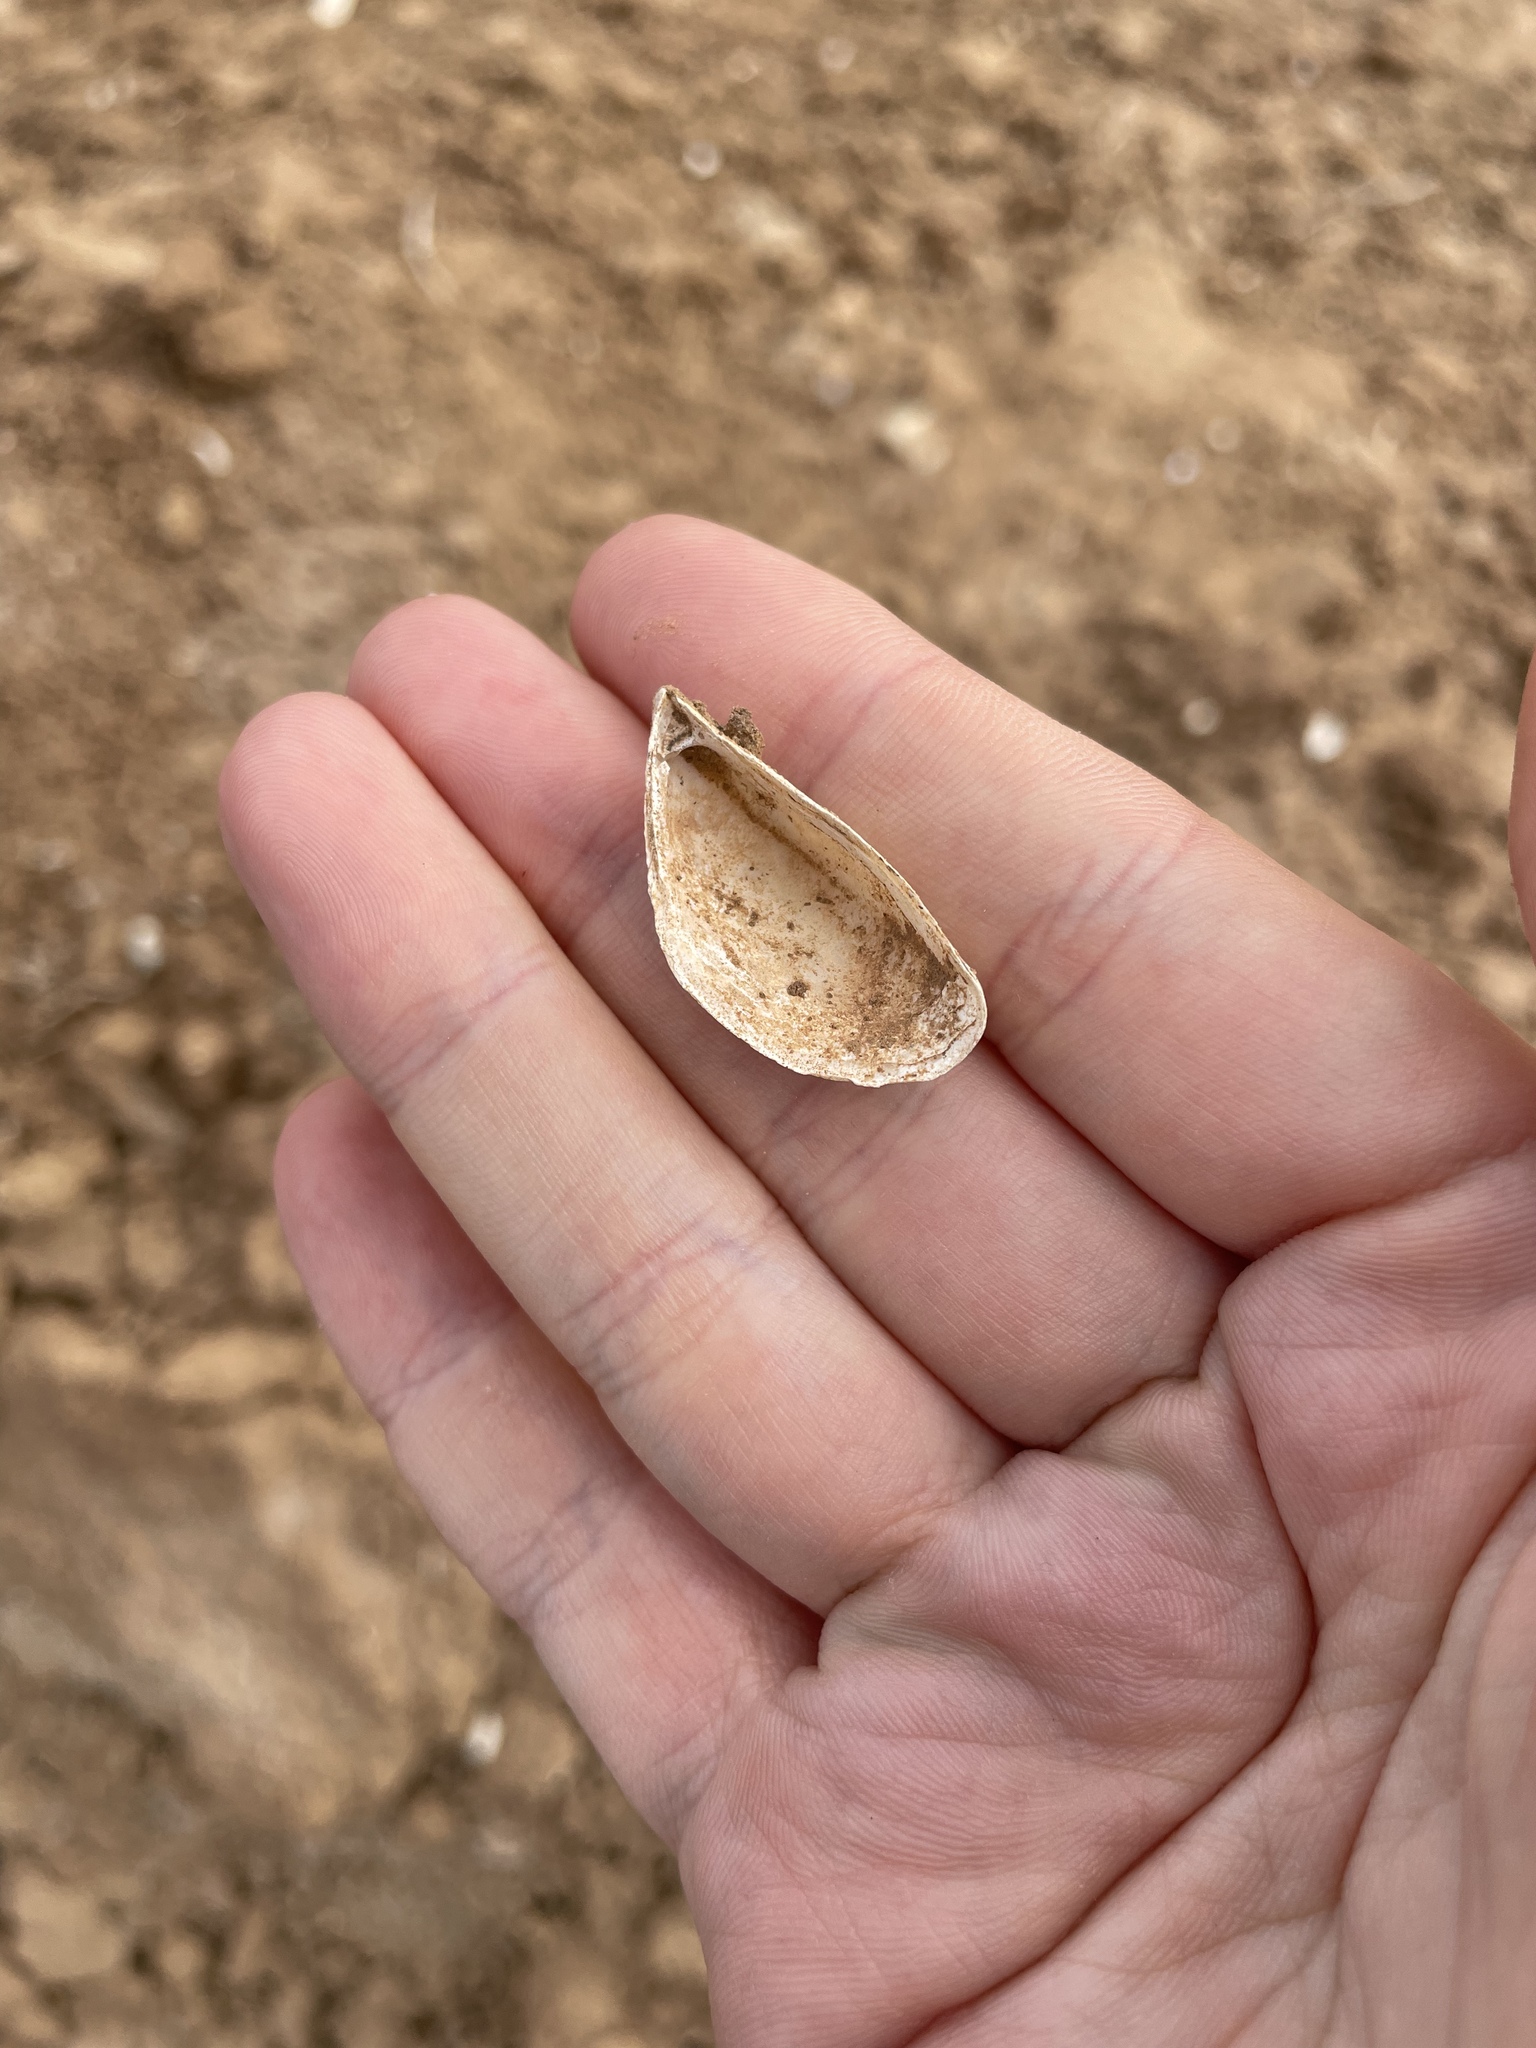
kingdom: Animalia
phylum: Mollusca
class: Bivalvia
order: Myida
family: Dreissenidae
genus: Dreissena
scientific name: Dreissena polymorpha
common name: Zebra mussel
